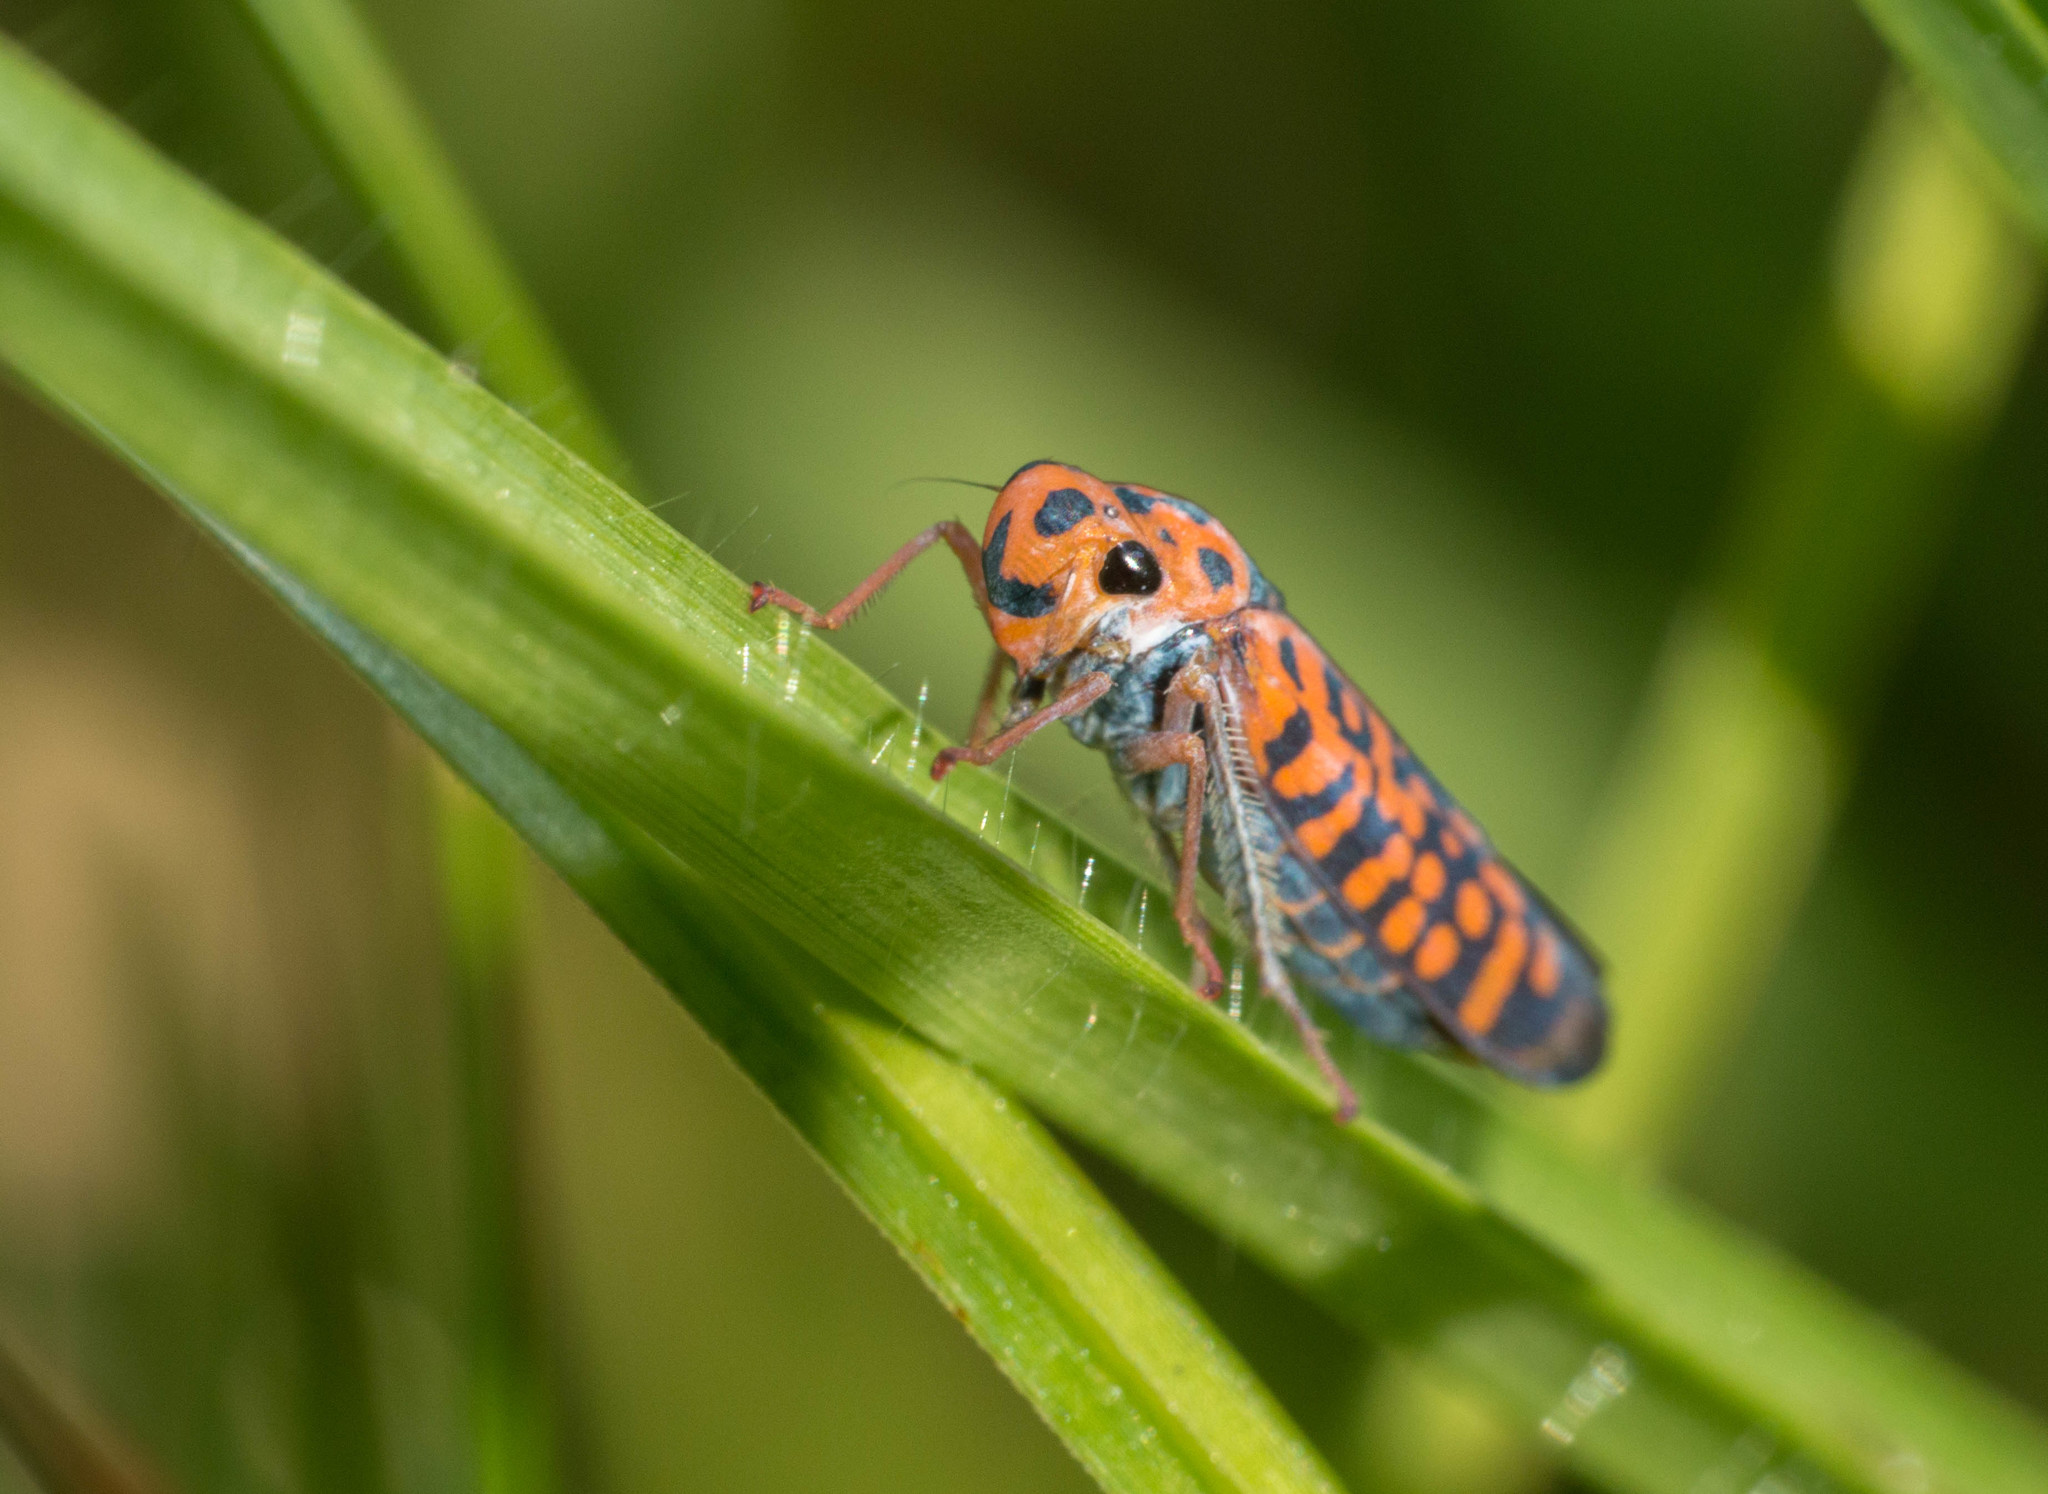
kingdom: Animalia
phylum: Arthropoda
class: Insecta
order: Hemiptera
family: Cicadellidae
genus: Pawiloma
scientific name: Pawiloma victima
